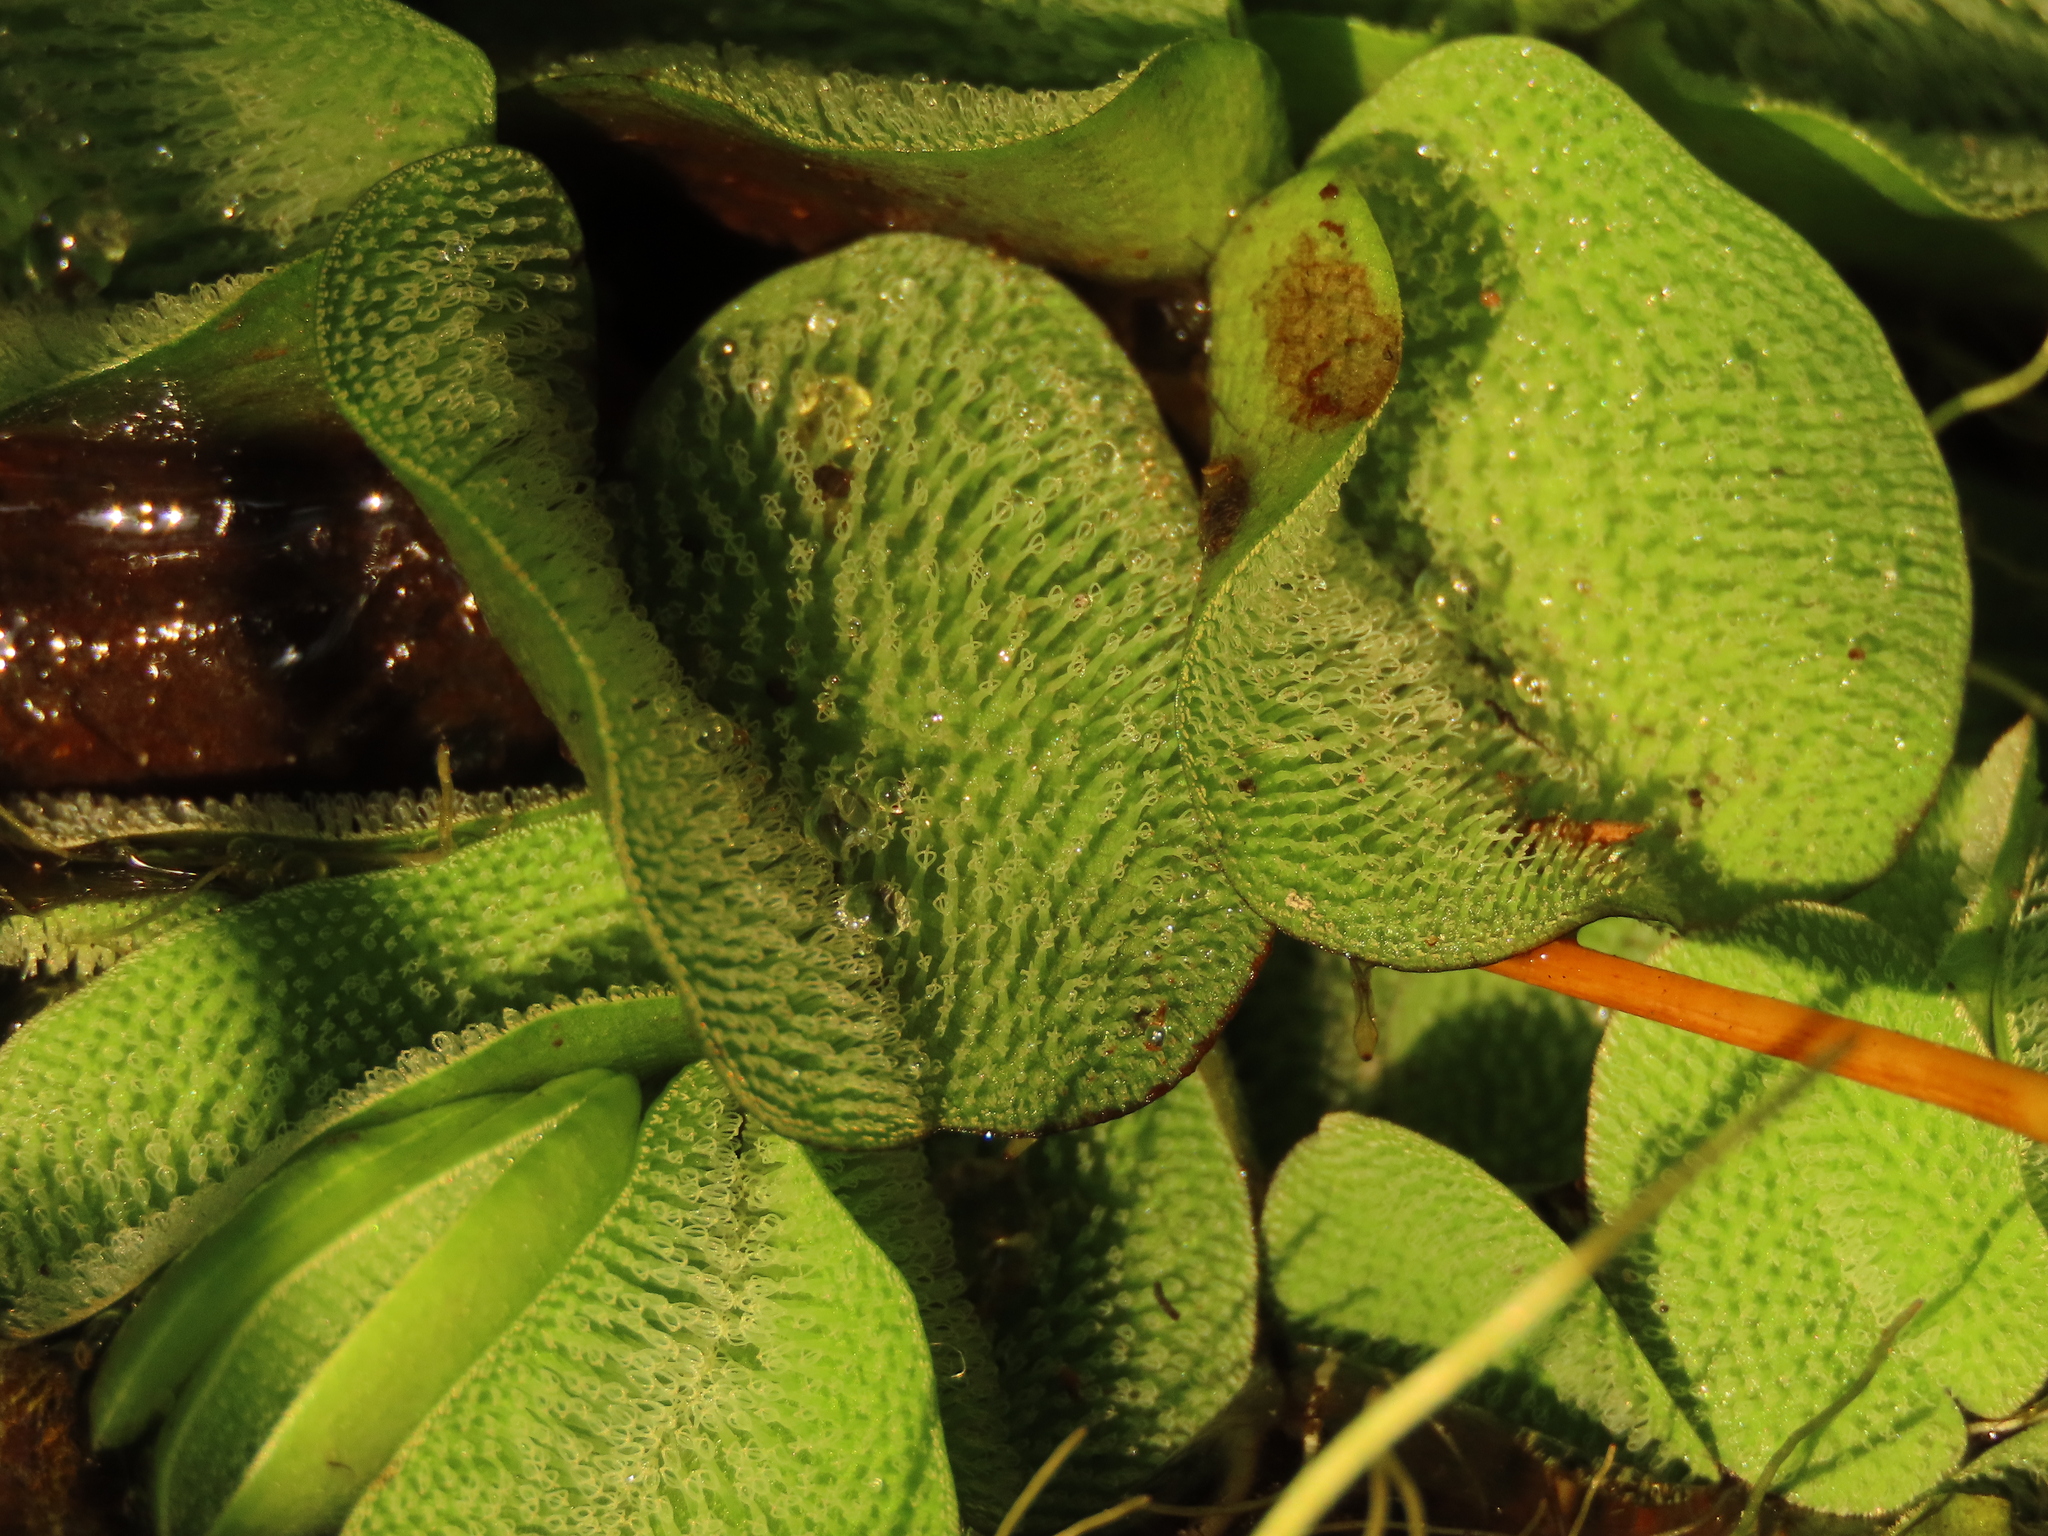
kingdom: Plantae
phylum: Tracheophyta
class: Polypodiopsida
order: Salviniales
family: Salviniaceae
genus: Salvinia
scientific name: Salvinia molesta
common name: Kariba weed
